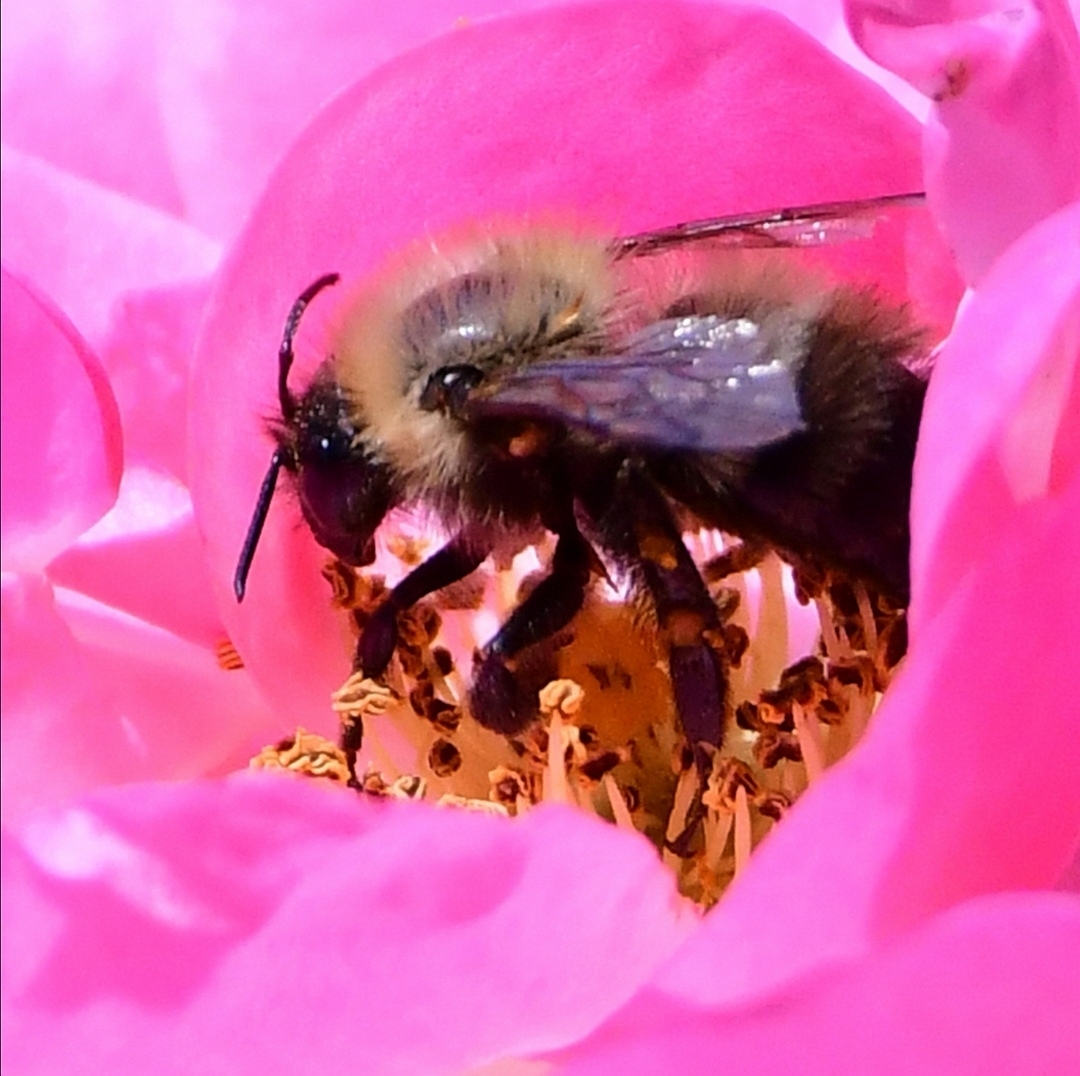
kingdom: Animalia
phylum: Arthropoda
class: Insecta
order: Hymenoptera
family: Apidae
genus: Pyrobombus
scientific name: Pyrobombus
